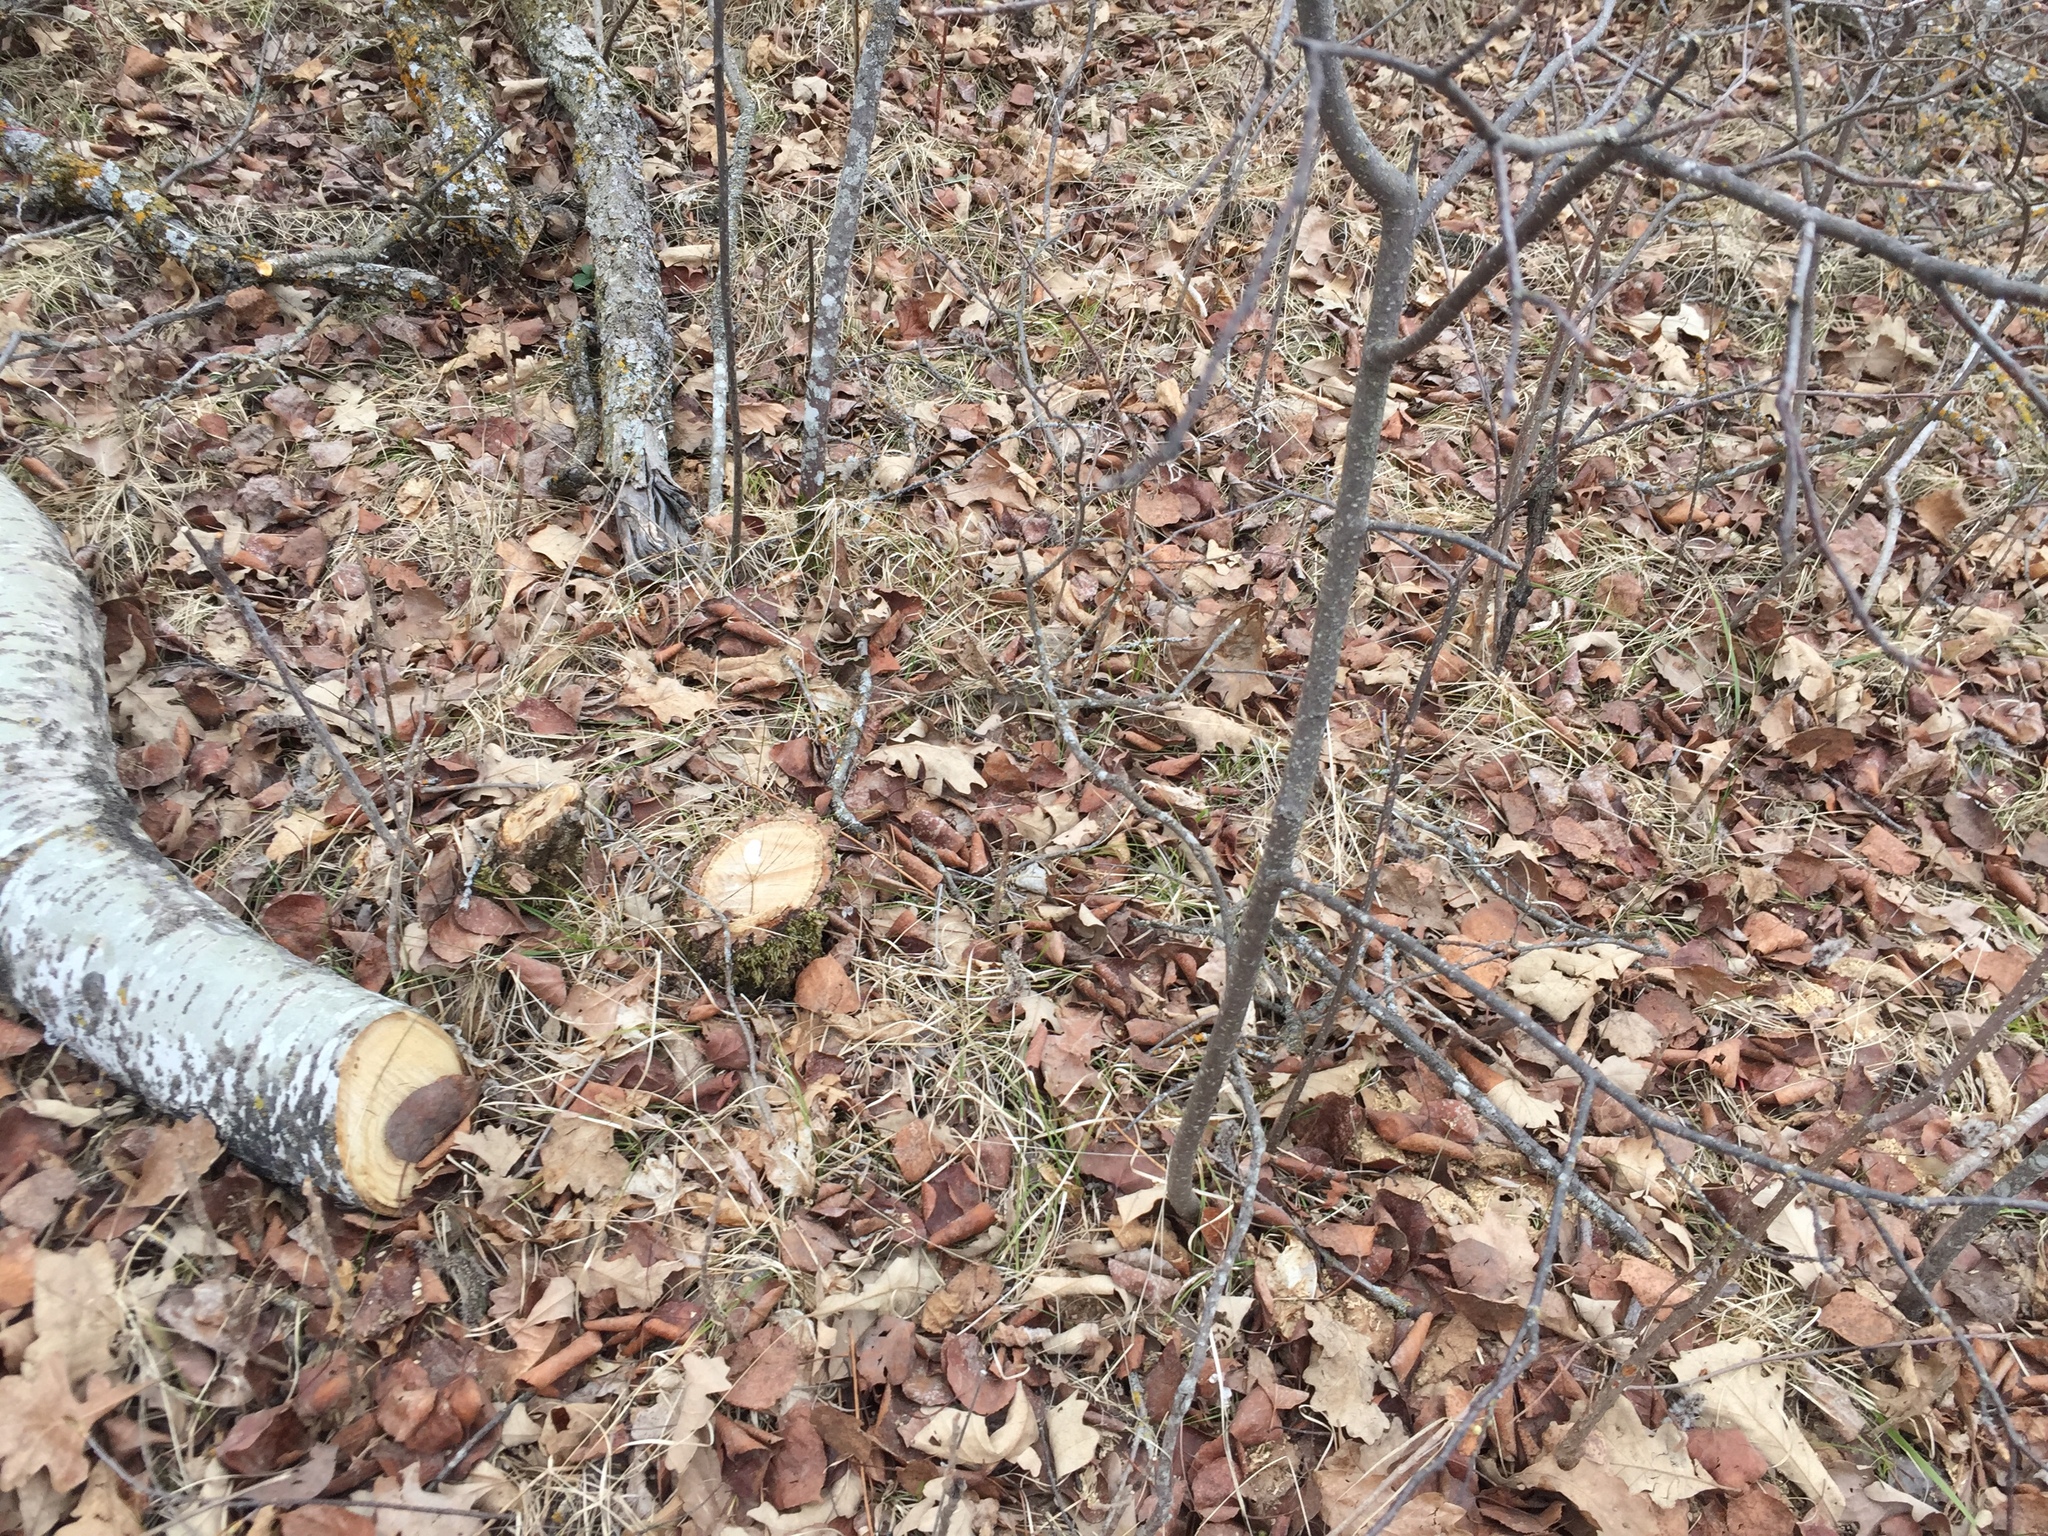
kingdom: Plantae
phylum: Tracheophyta
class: Magnoliopsida
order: Malpighiales
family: Salicaceae
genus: Populus
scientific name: Populus tremuloides
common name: Quaking aspen
